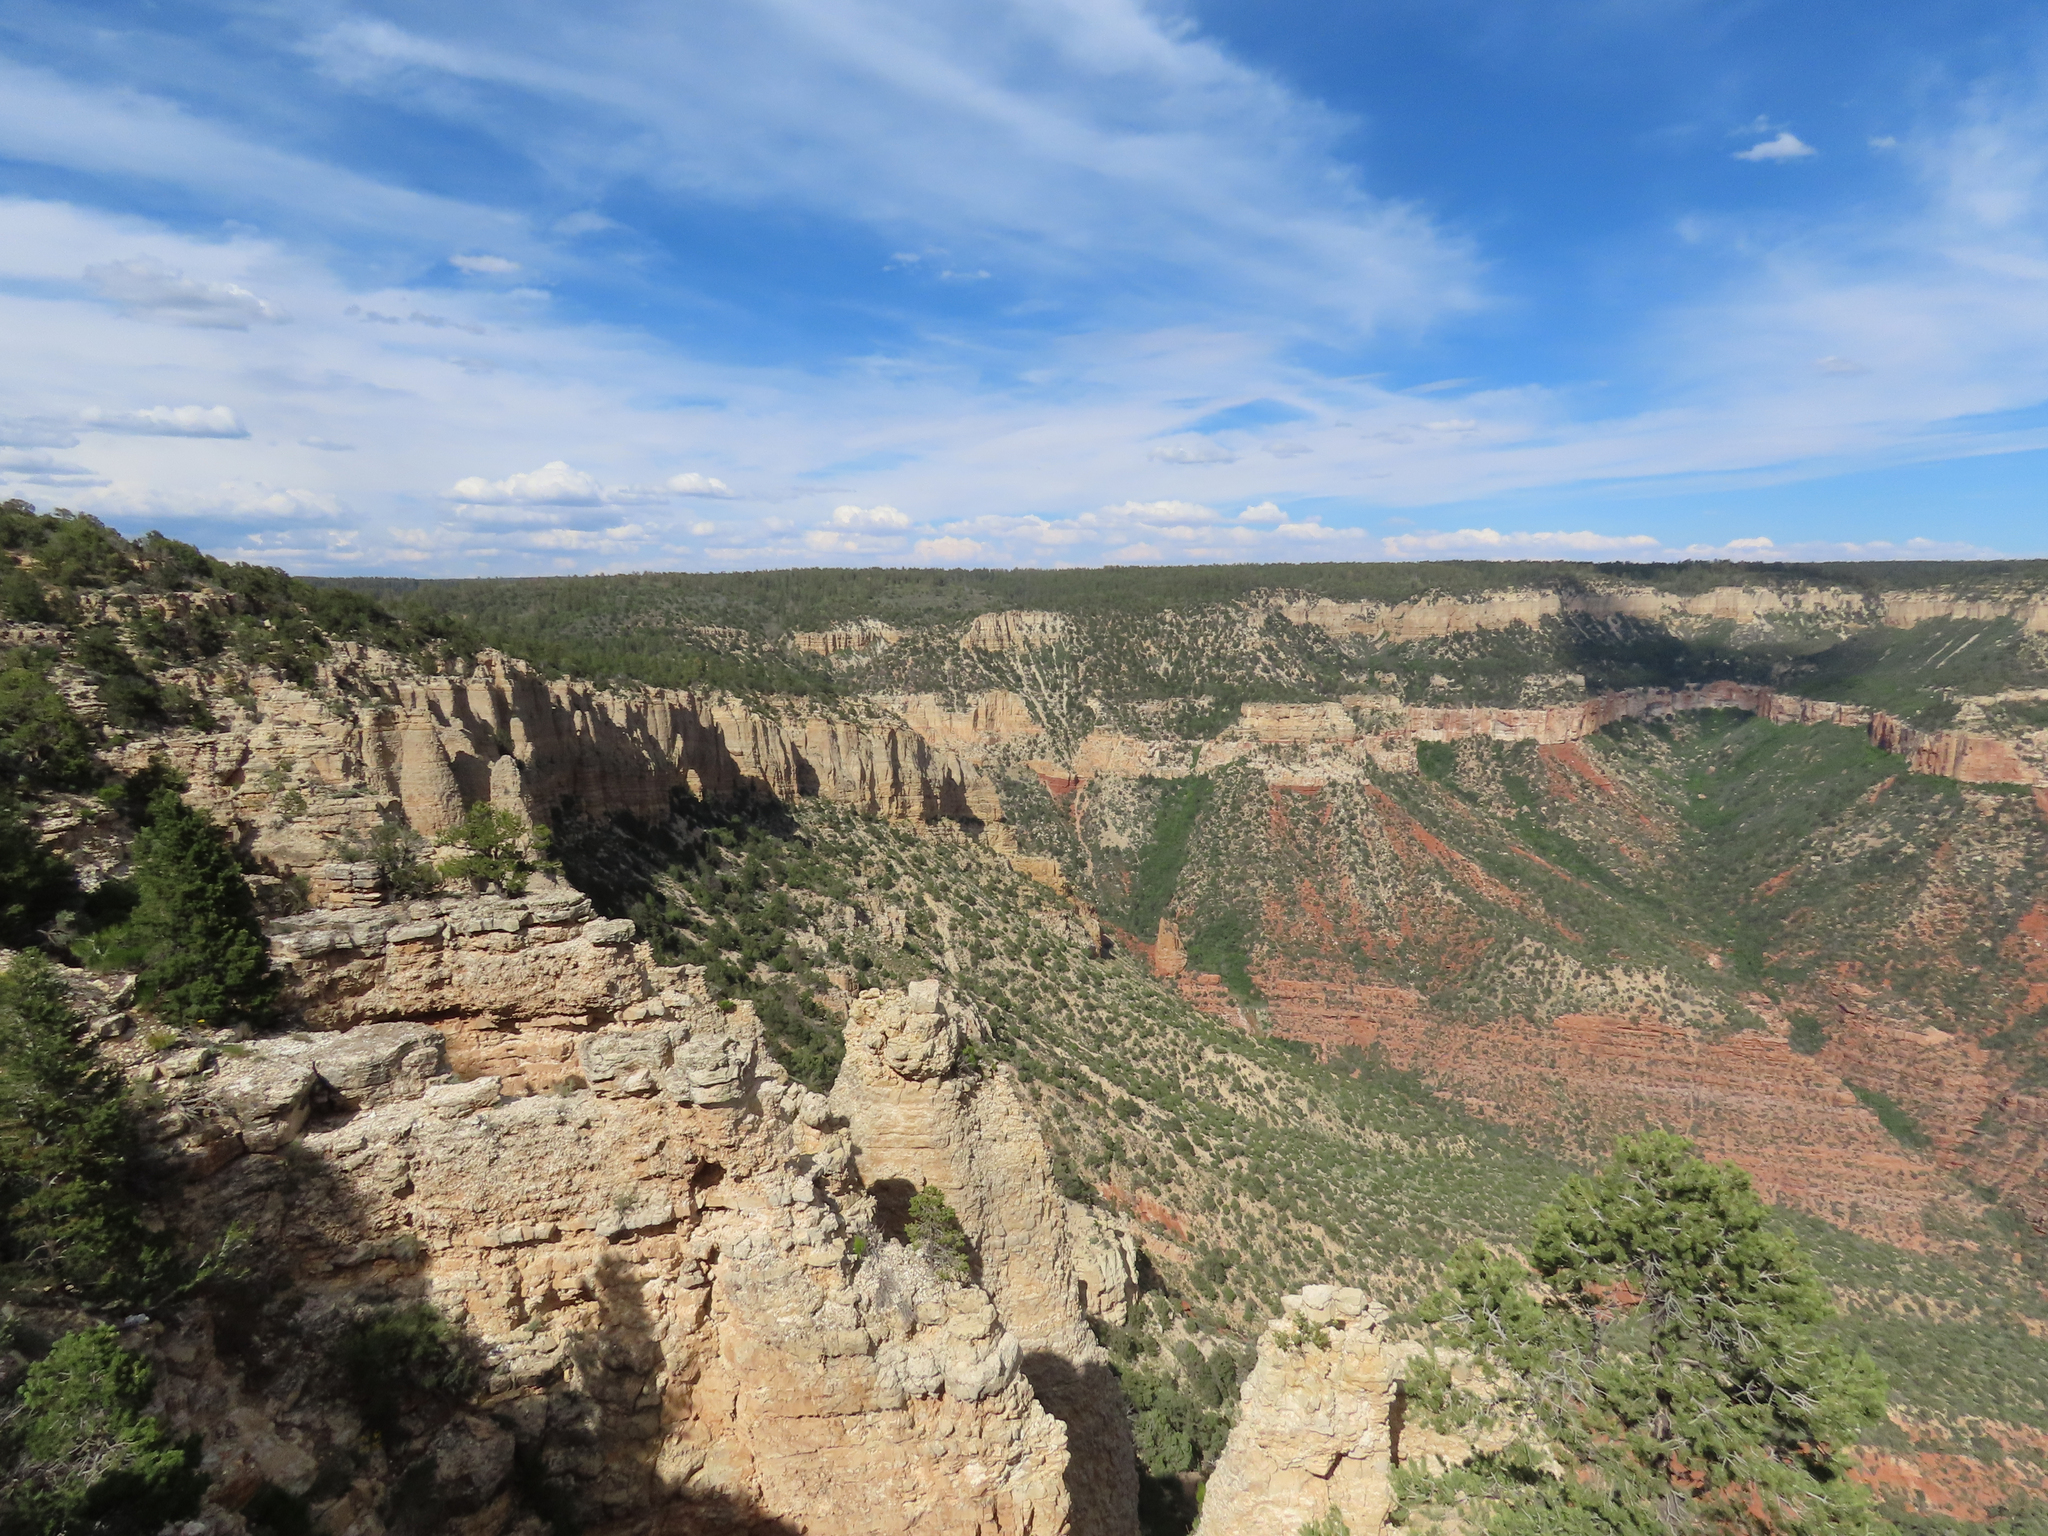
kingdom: Animalia
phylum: Chordata
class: Aves
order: Accipitriformes
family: Cathartidae
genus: Gymnogyps
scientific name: Gymnogyps californianus
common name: California condor
